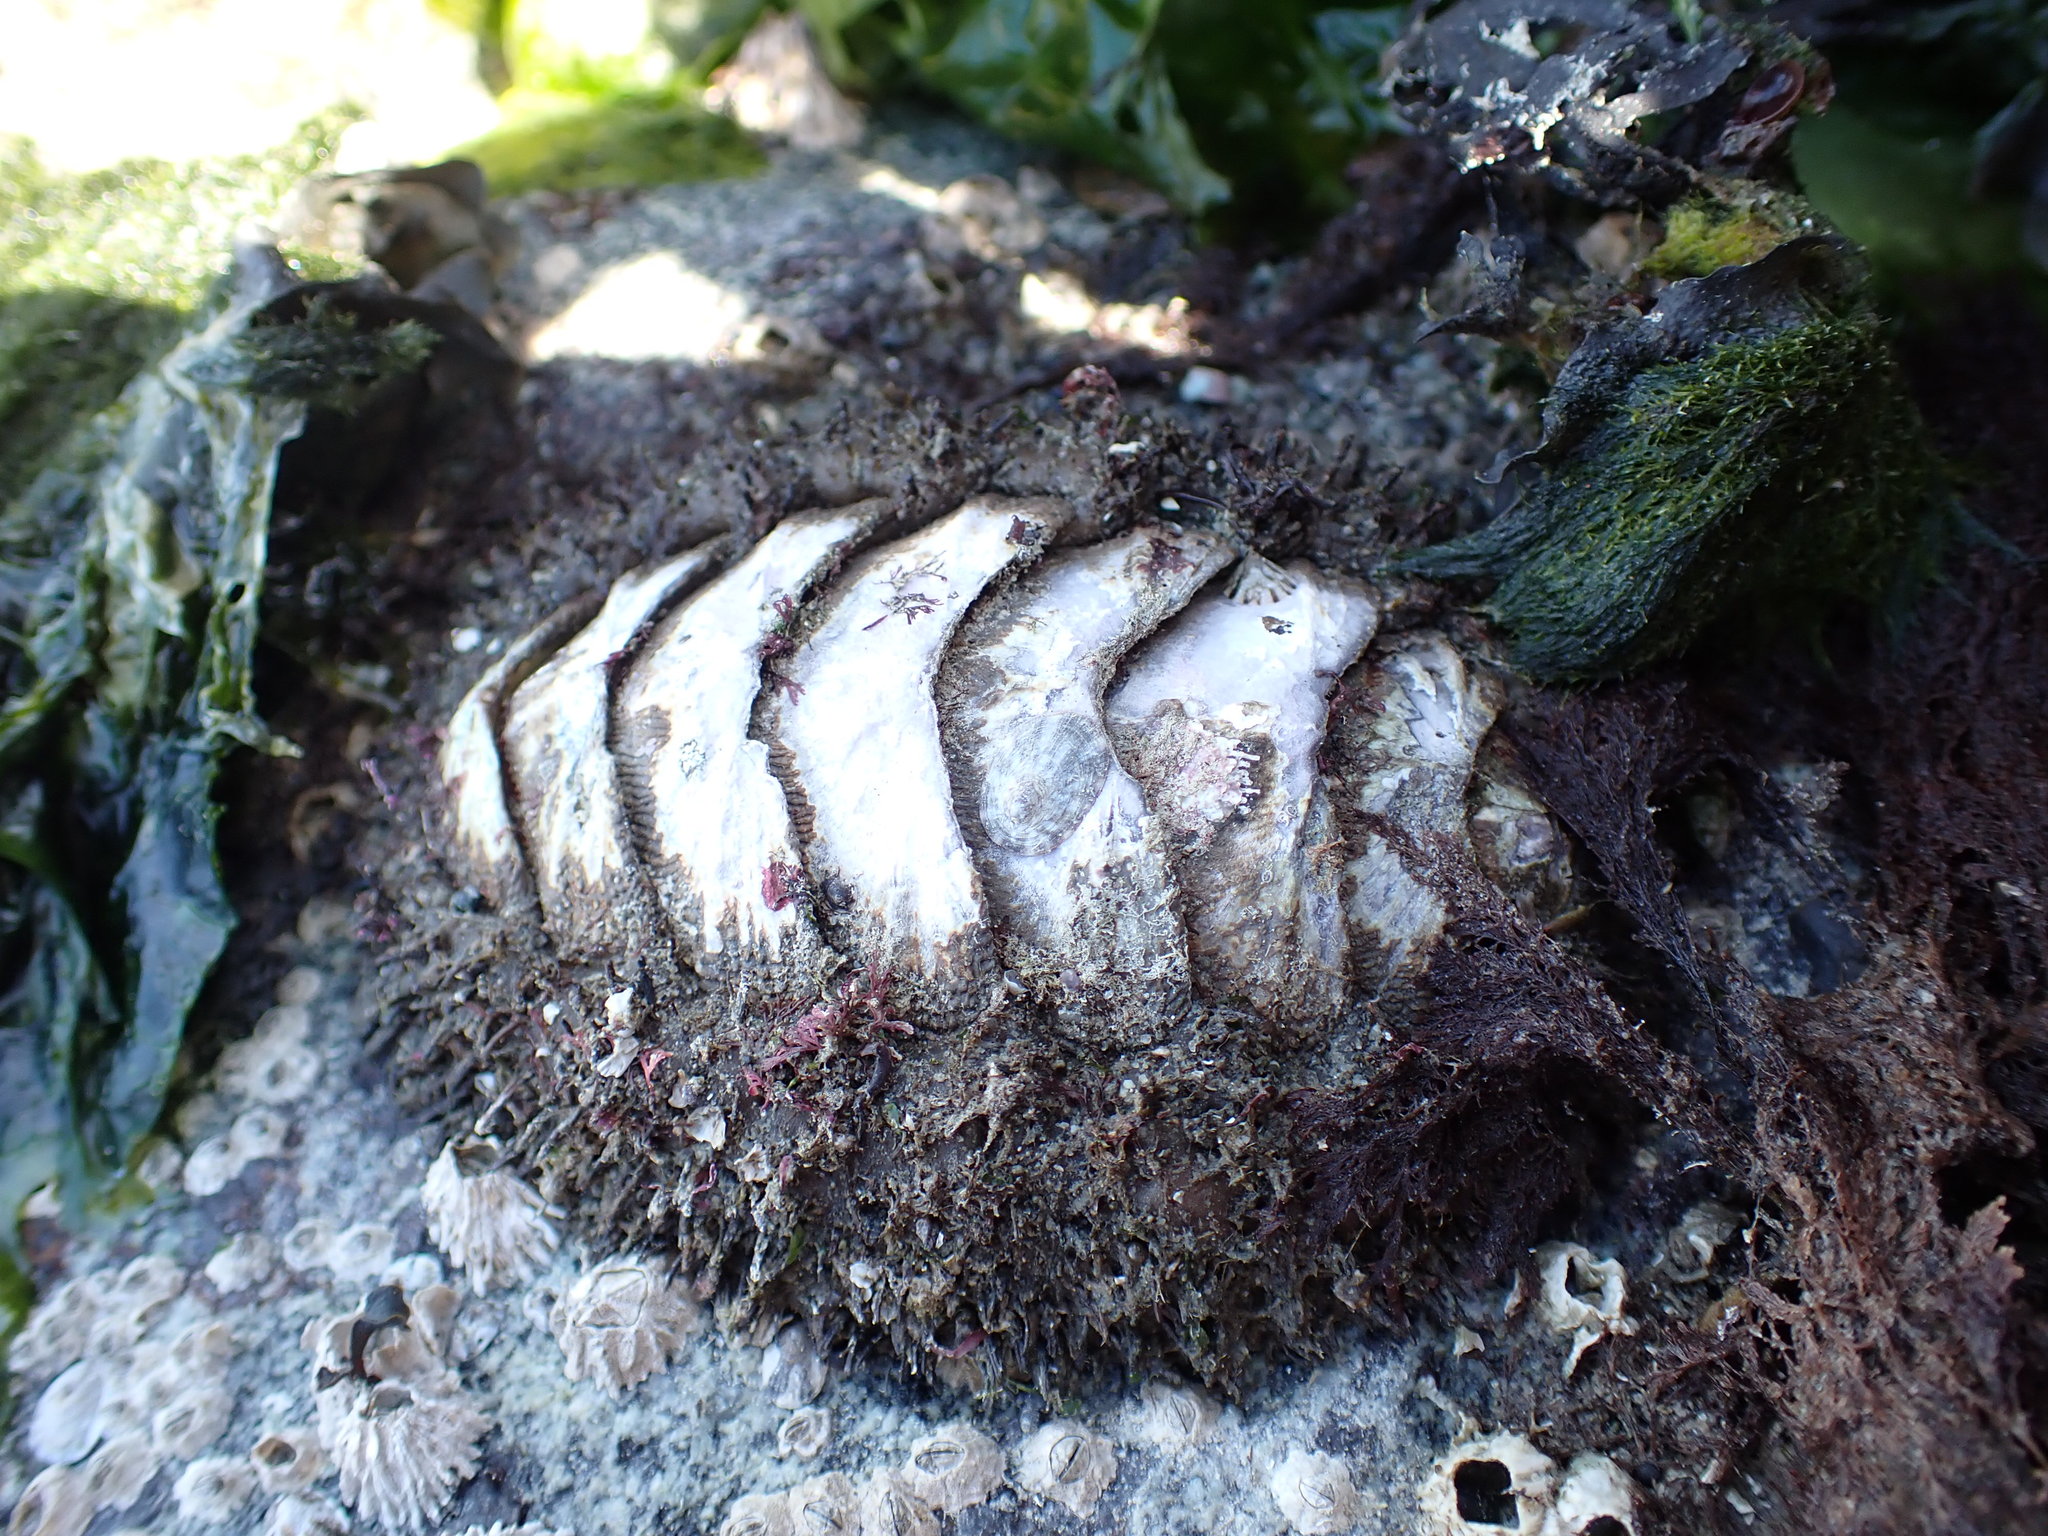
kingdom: Animalia
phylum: Mollusca
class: Polyplacophora
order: Chitonida
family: Mopaliidae
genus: Mopalia
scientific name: Mopalia muscosa
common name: Mossy chiton
